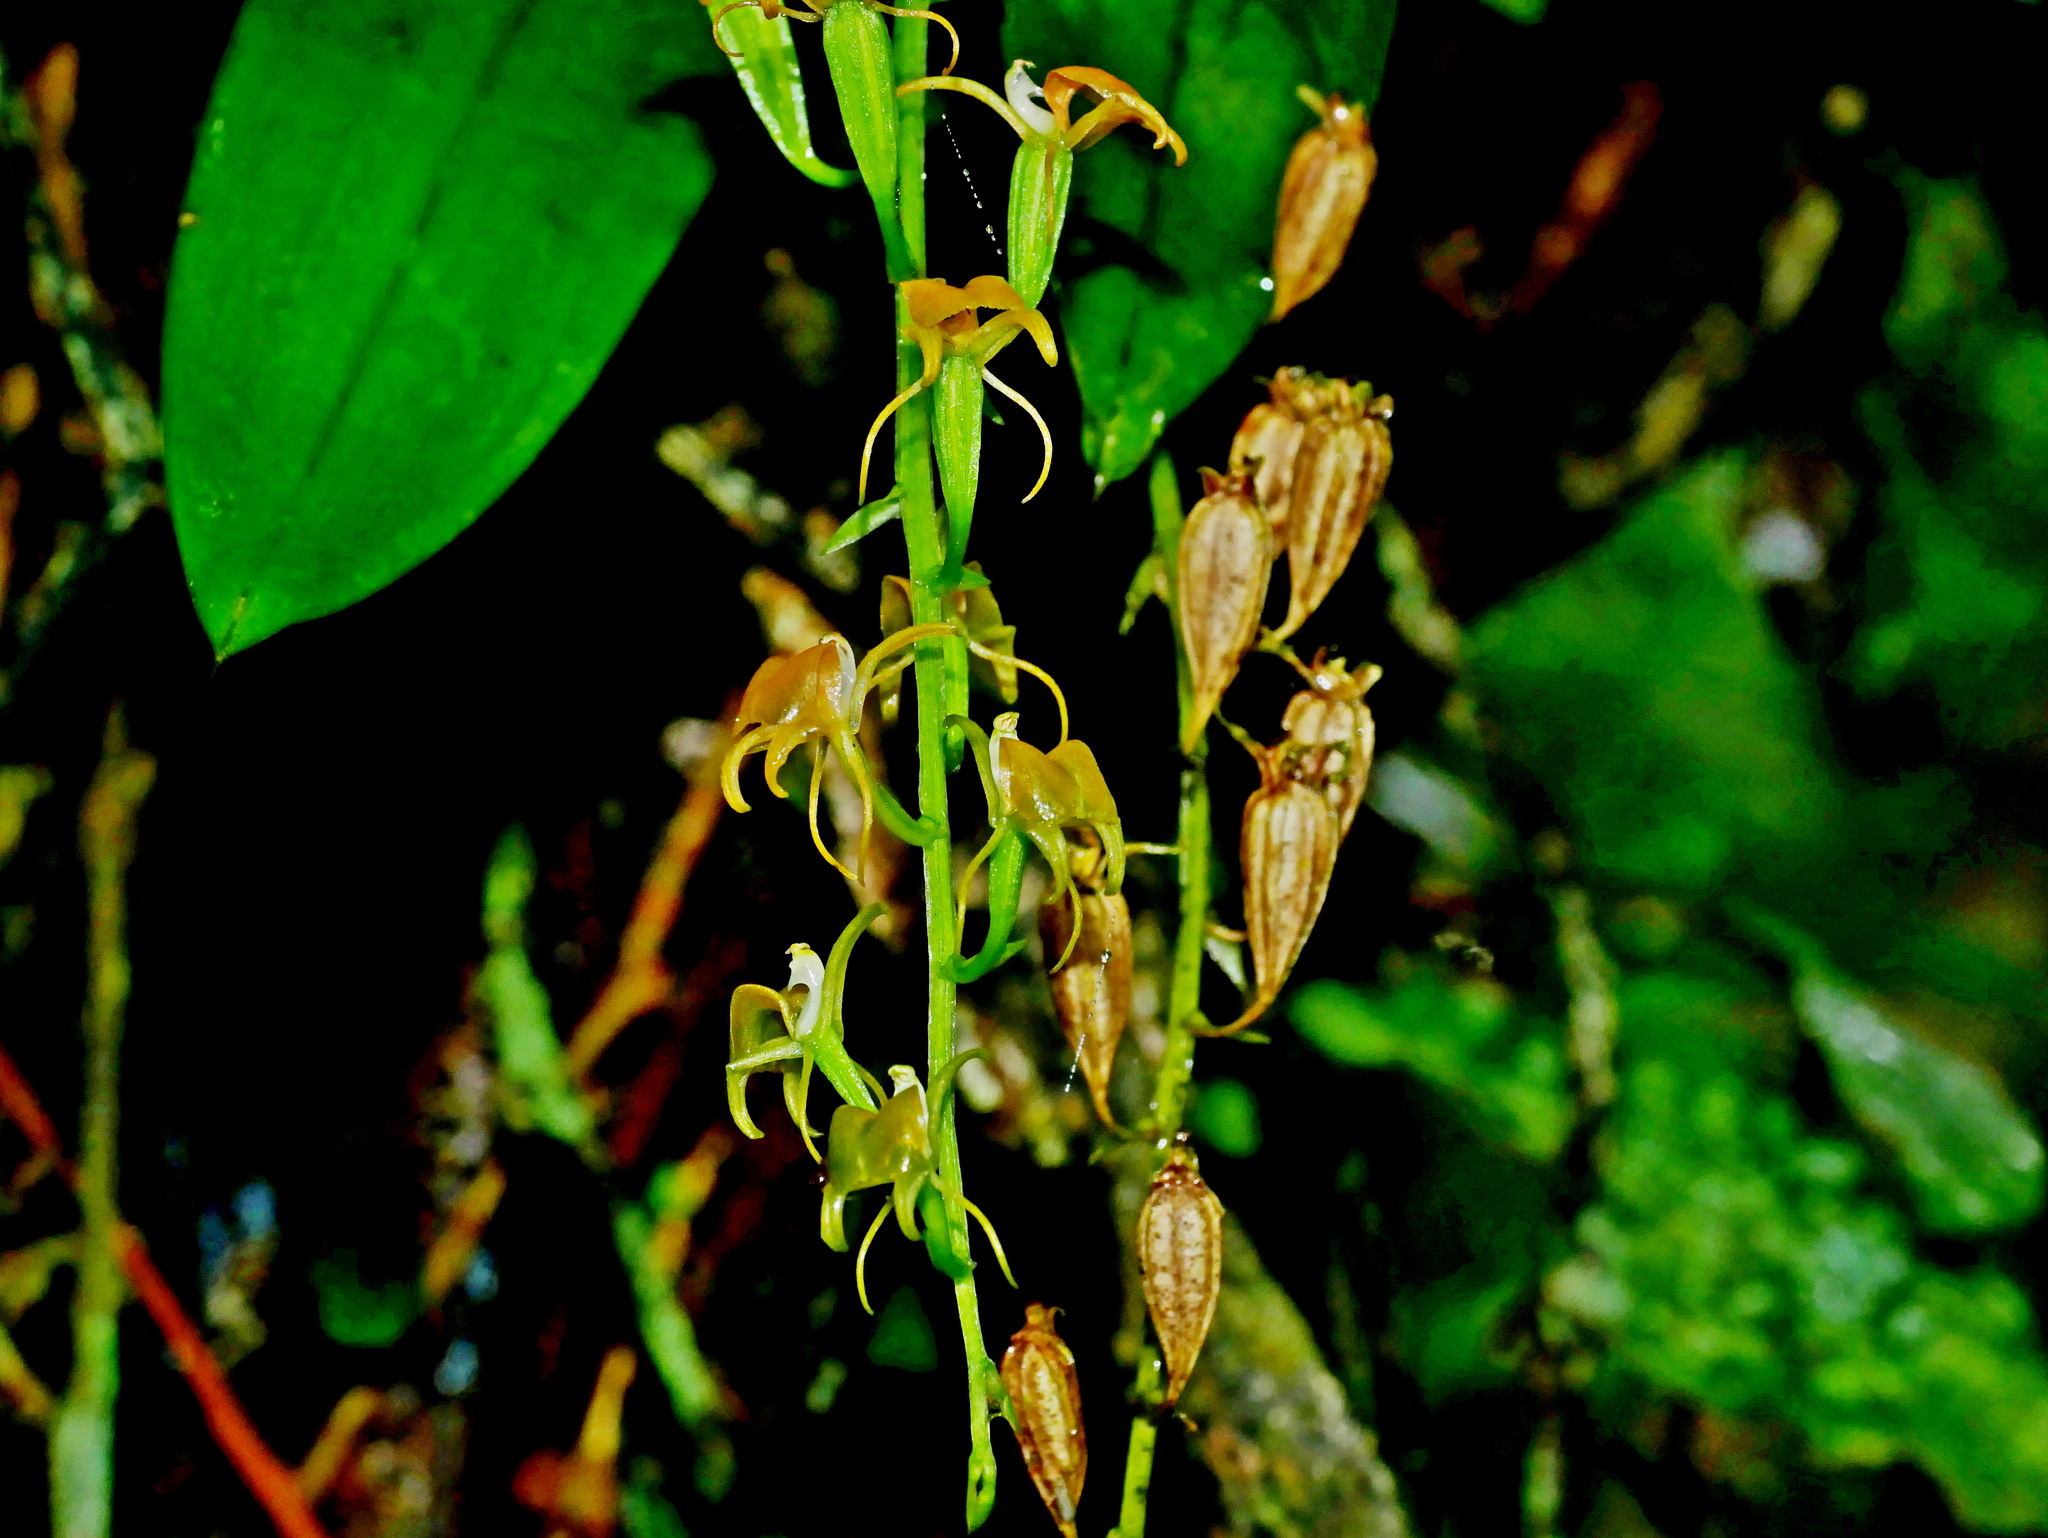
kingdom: Plantae
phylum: Tracheophyta
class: Liliopsida
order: Asparagales
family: Orchidaceae
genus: Liparis
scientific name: Liparis bootanensis
